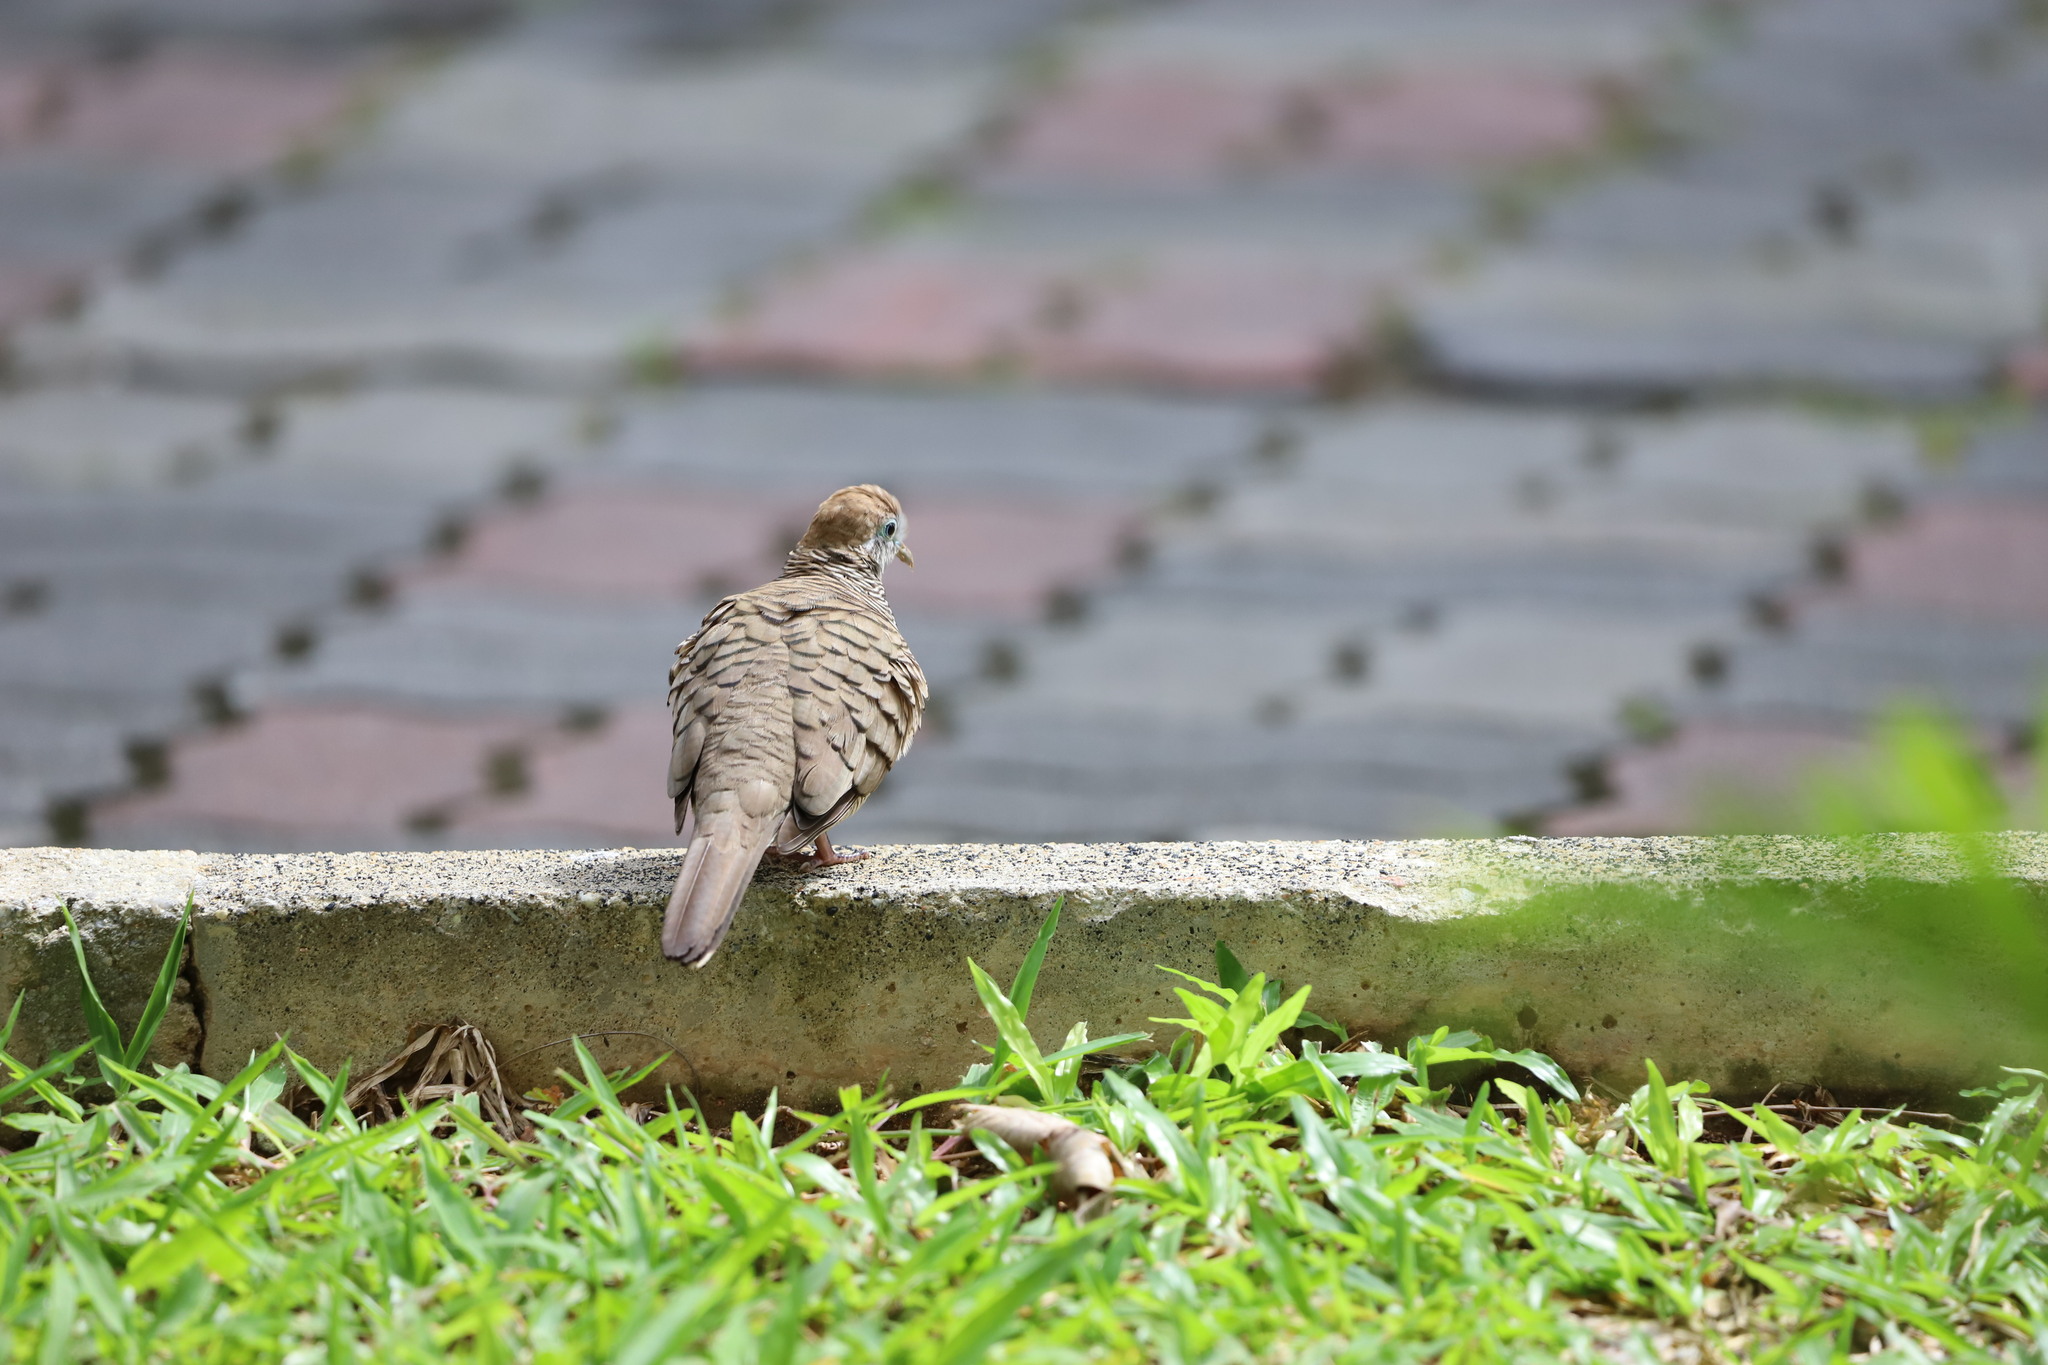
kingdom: Animalia
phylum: Chordata
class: Aves
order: Columbiformes
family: Columbidae
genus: Geopelia
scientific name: Geopelia striata
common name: Zebra dove
